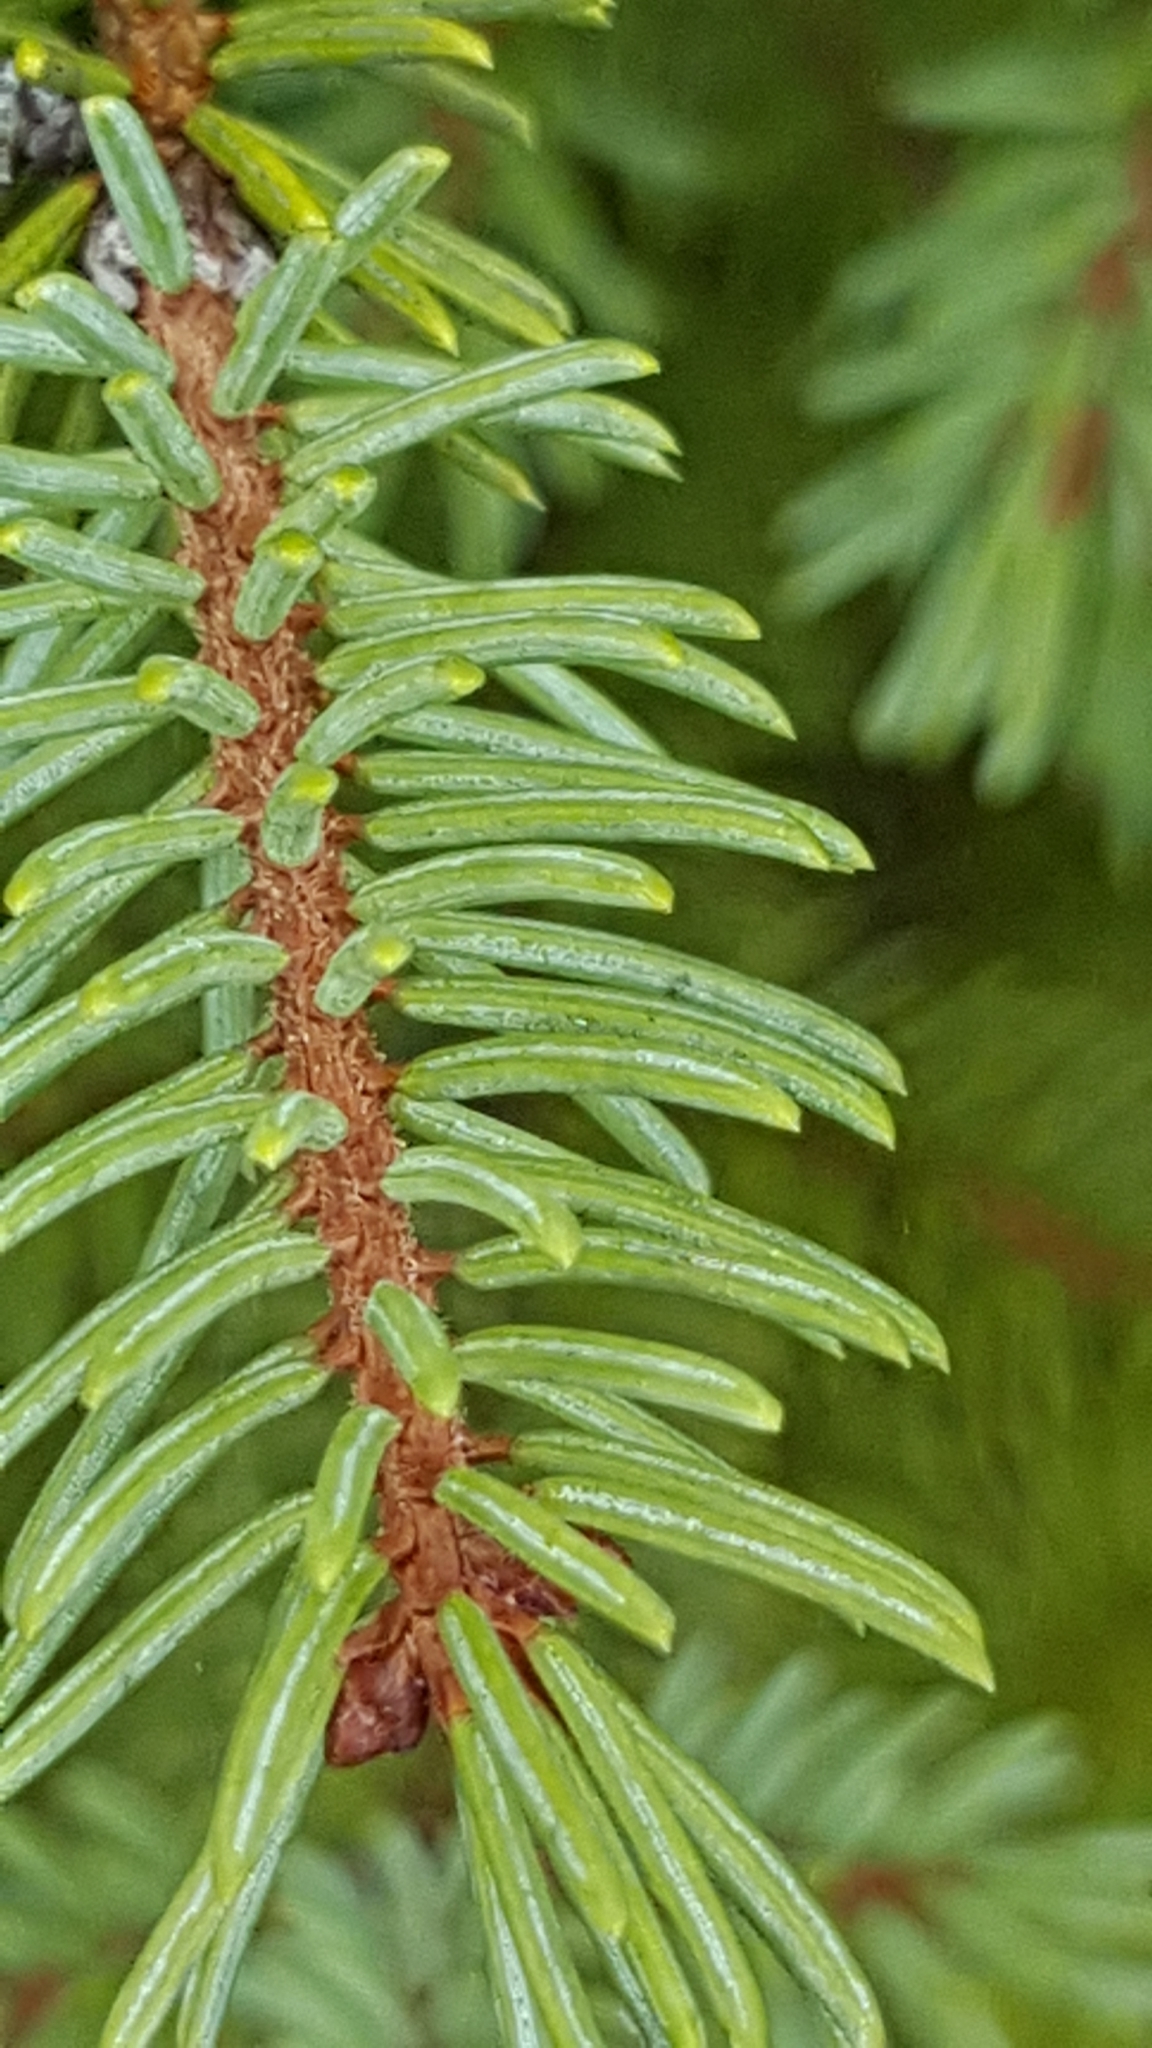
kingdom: Plantae
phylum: Tracheophyta
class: Pinopsida
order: Pinales
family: Pinaceae
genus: Picea
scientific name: Picea mariana
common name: Black spruce
